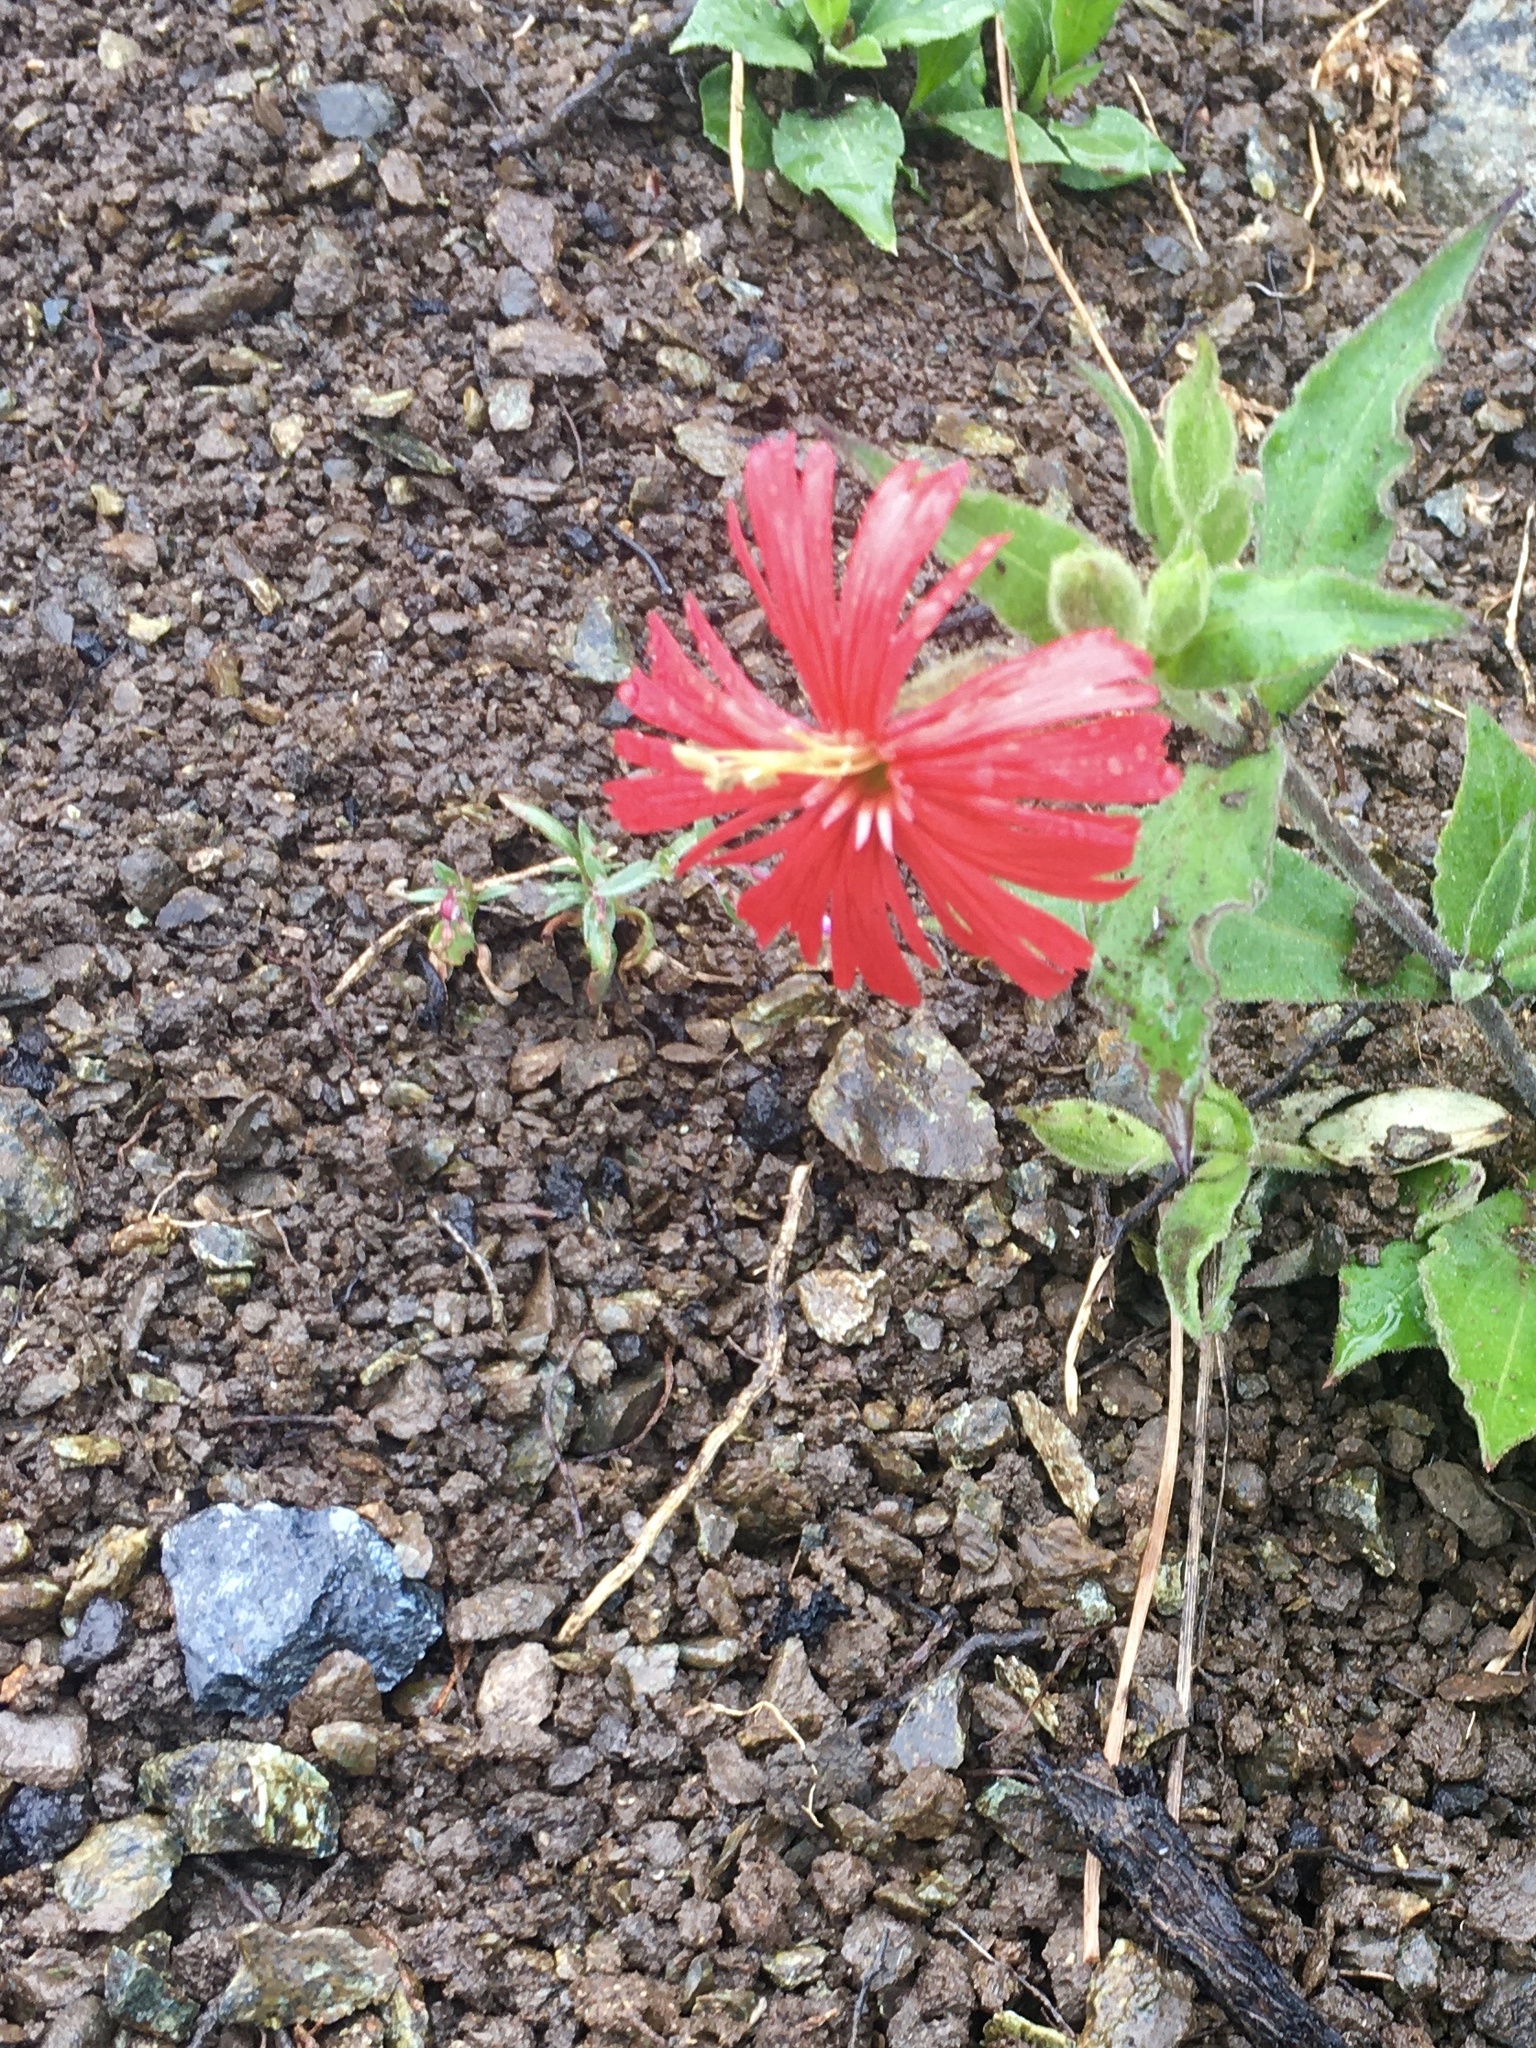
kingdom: Plantae
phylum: Tracheophyta
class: Magnoliopsida
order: Caryophyllales
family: Caryophyllaceae
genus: Silene
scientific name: Silene laciniata
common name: Indian-pink
